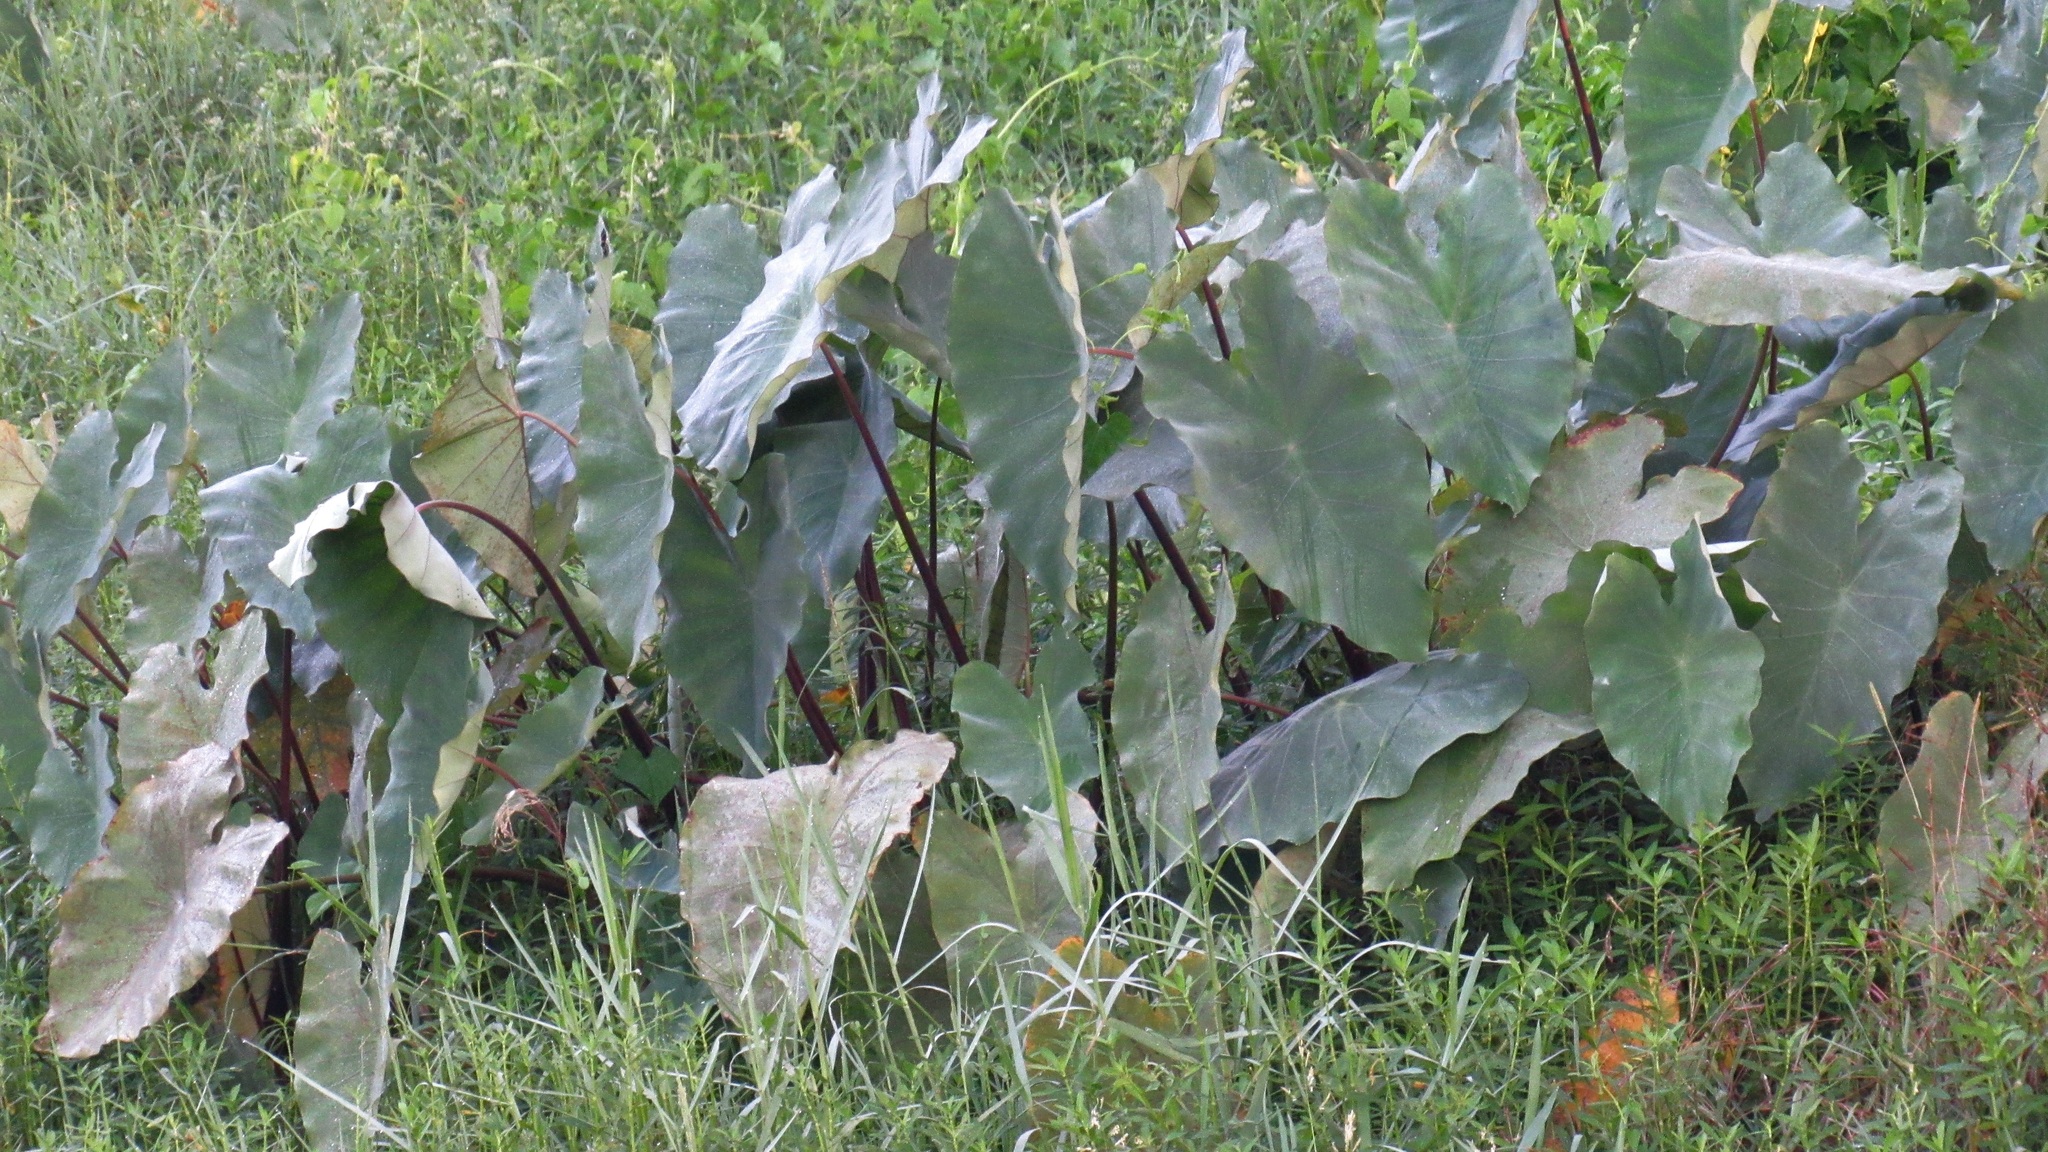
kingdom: Plantae
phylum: Tracheophyta
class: Liliopsida
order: Alismatales
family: Araceae
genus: Colocasia
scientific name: Colocasia esculenta
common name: Taro
